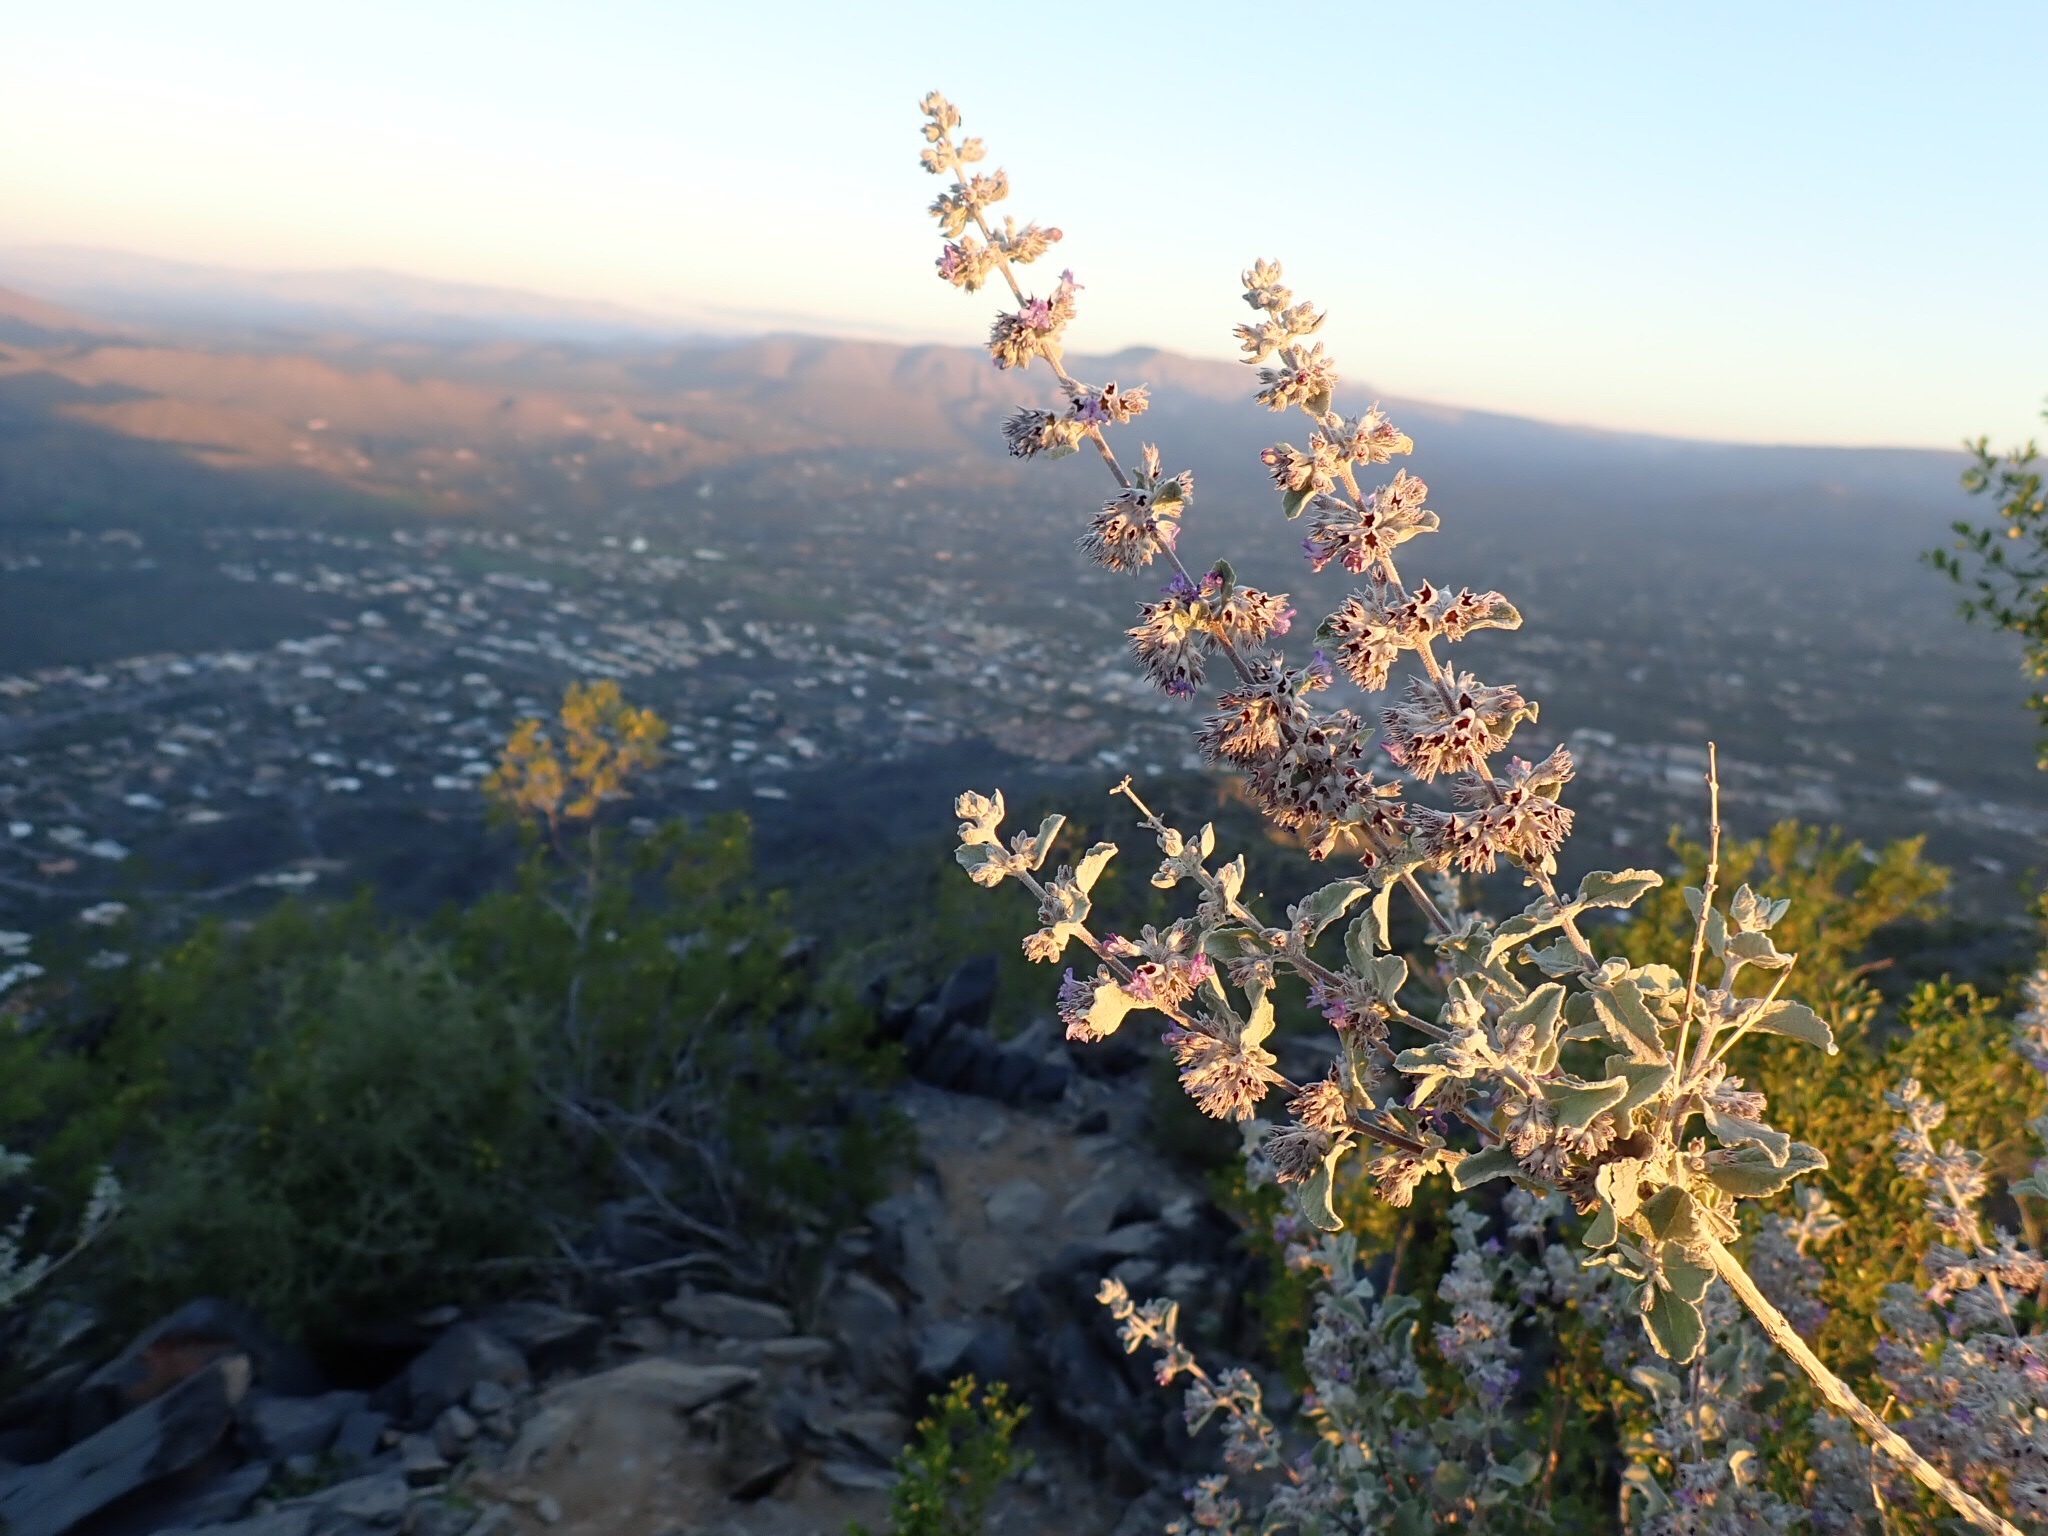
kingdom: Plantae
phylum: Tracheophyta
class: Magnoliopsida
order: Lamiales
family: Lamiaceae
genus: Condea
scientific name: Condea emoryi
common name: Chia
